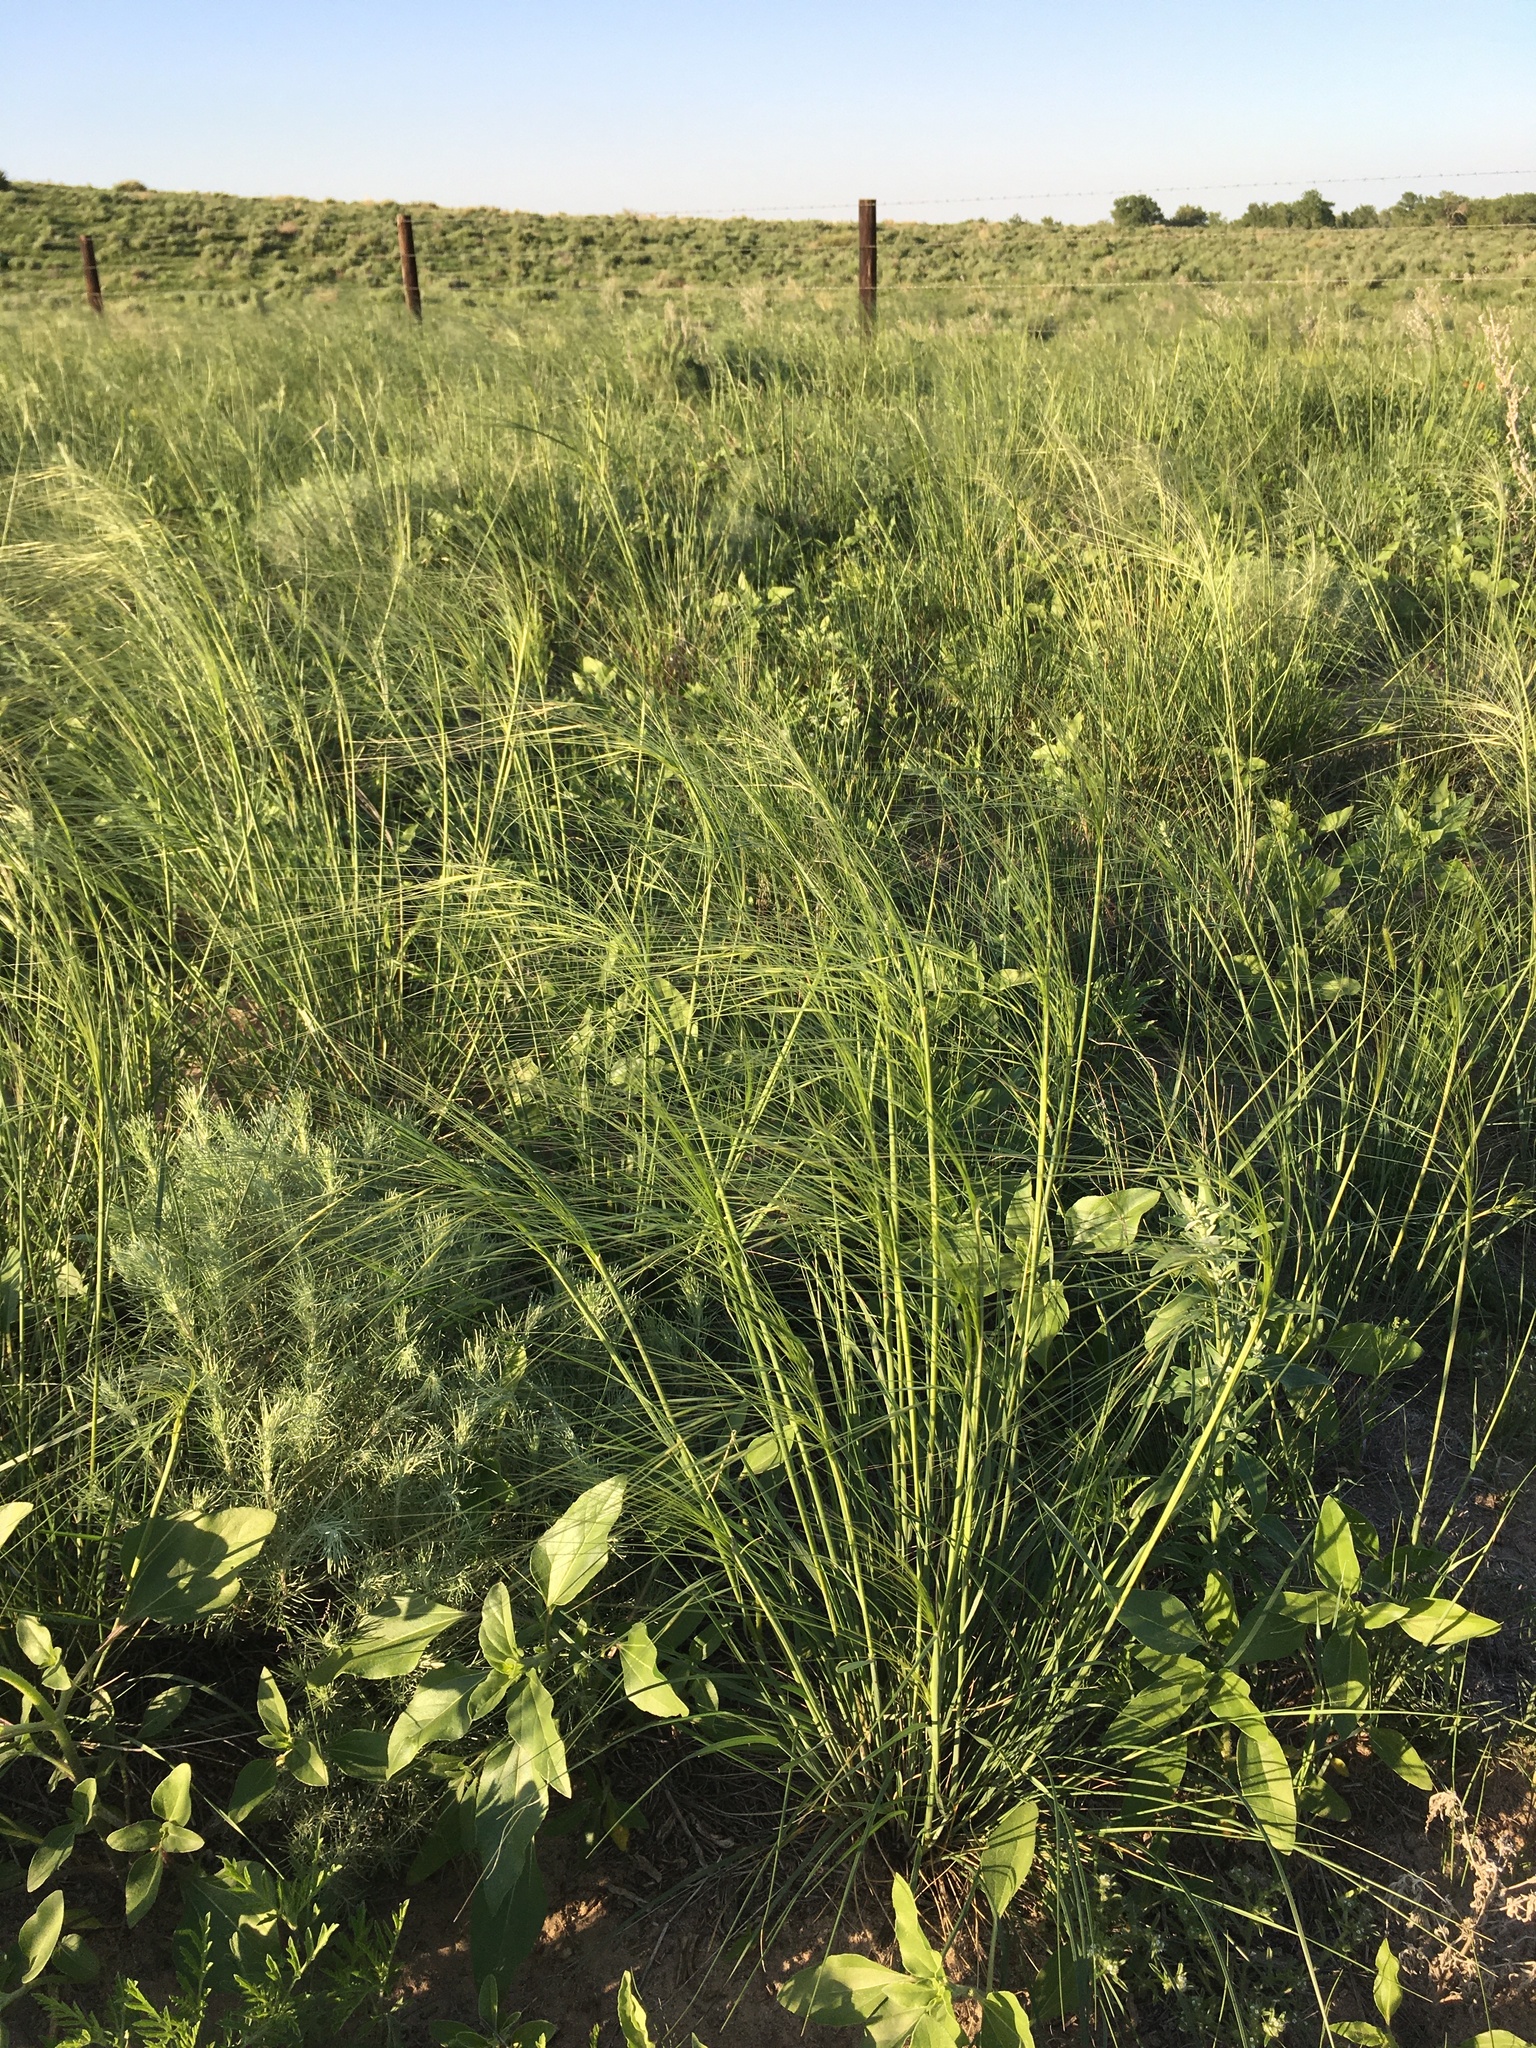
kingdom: Plantae
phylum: Tracheophyta
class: Liliopsida
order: Poales
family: Poaceae
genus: Hesperostipa
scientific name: Hesperostipa comata
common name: Needle-and-thread grass
